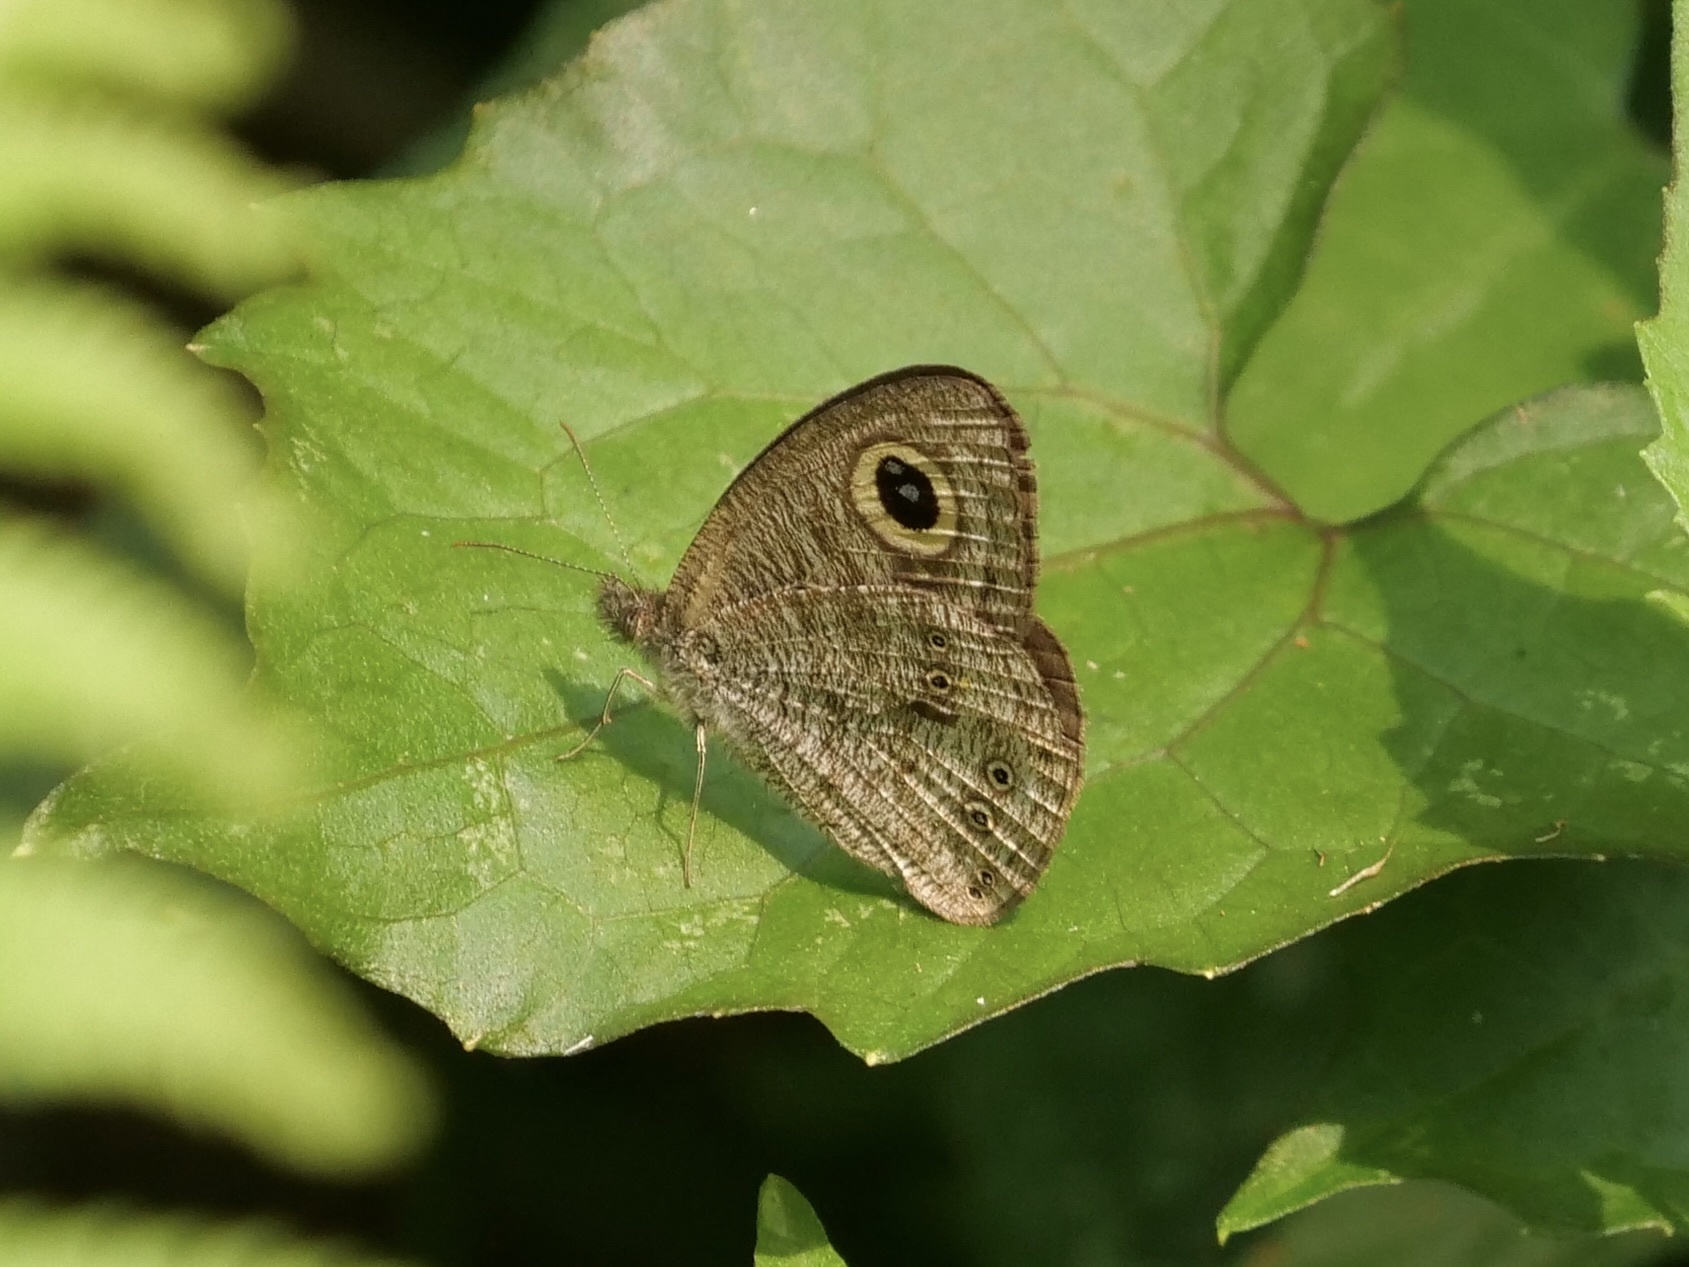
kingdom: Animalia
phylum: Arthropoda
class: Insecta
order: Lepidoptera
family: Nymphalidae
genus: Ypthima
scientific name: Ypthima baldus
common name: Common five-ring
